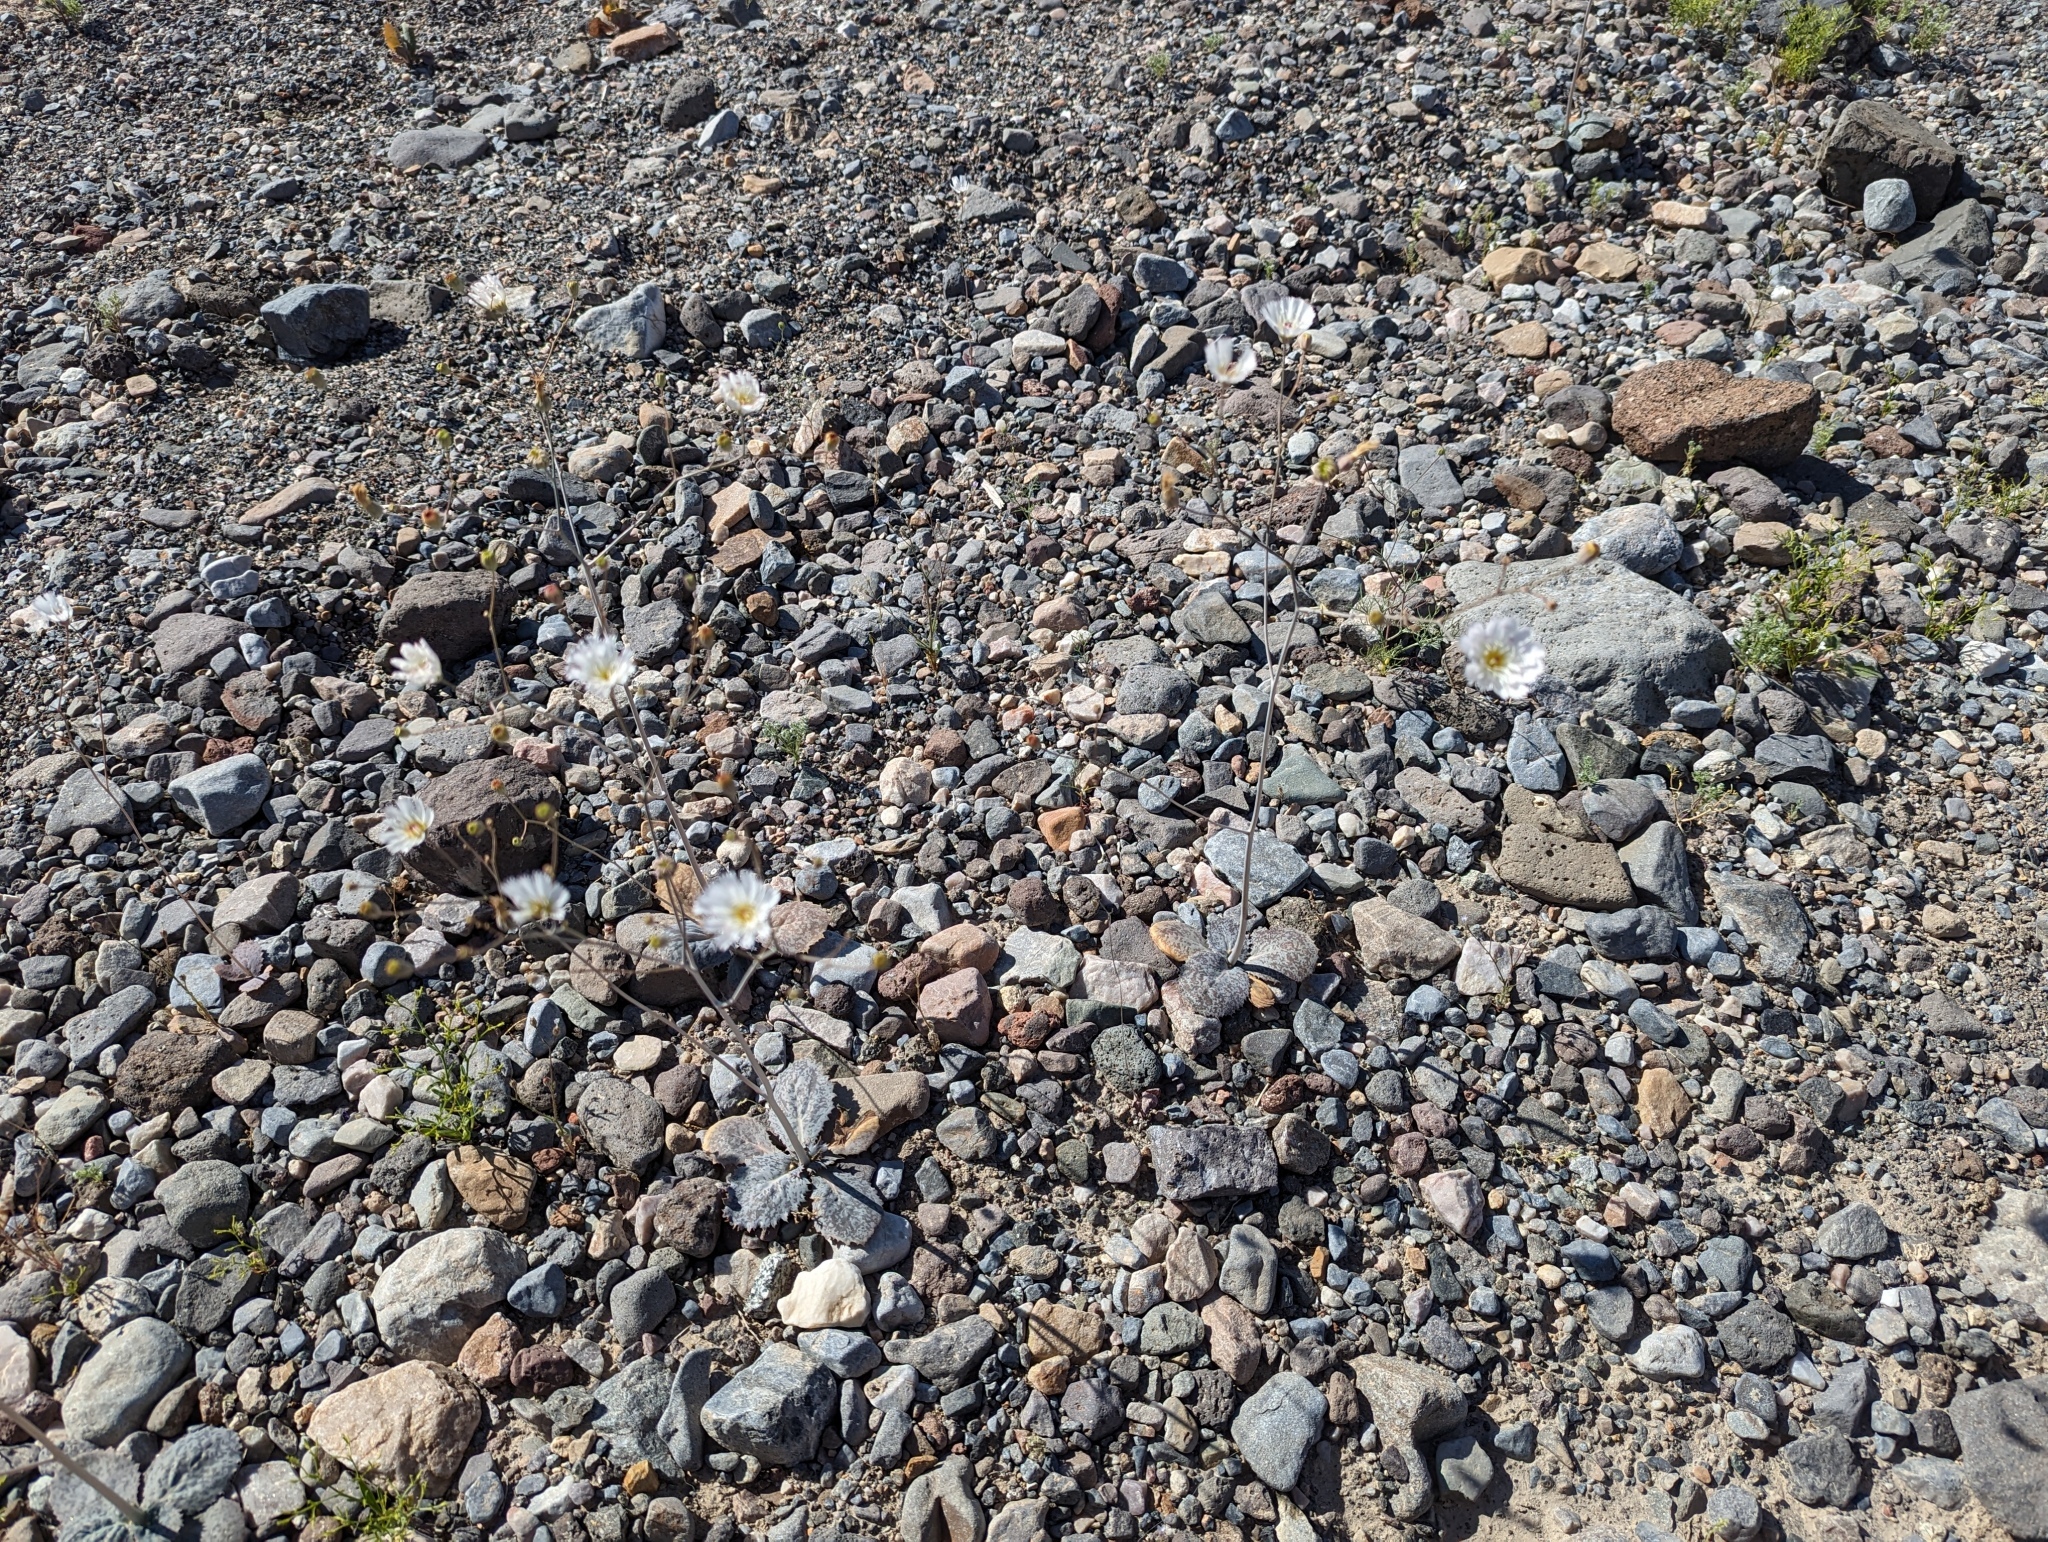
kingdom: Plantae
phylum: Tracheophyta
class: Magnoliopsida
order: Asterales
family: Asteraceae
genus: Atrichoseris
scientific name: Atrichoseris platyphylla
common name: Tobaccoweed
